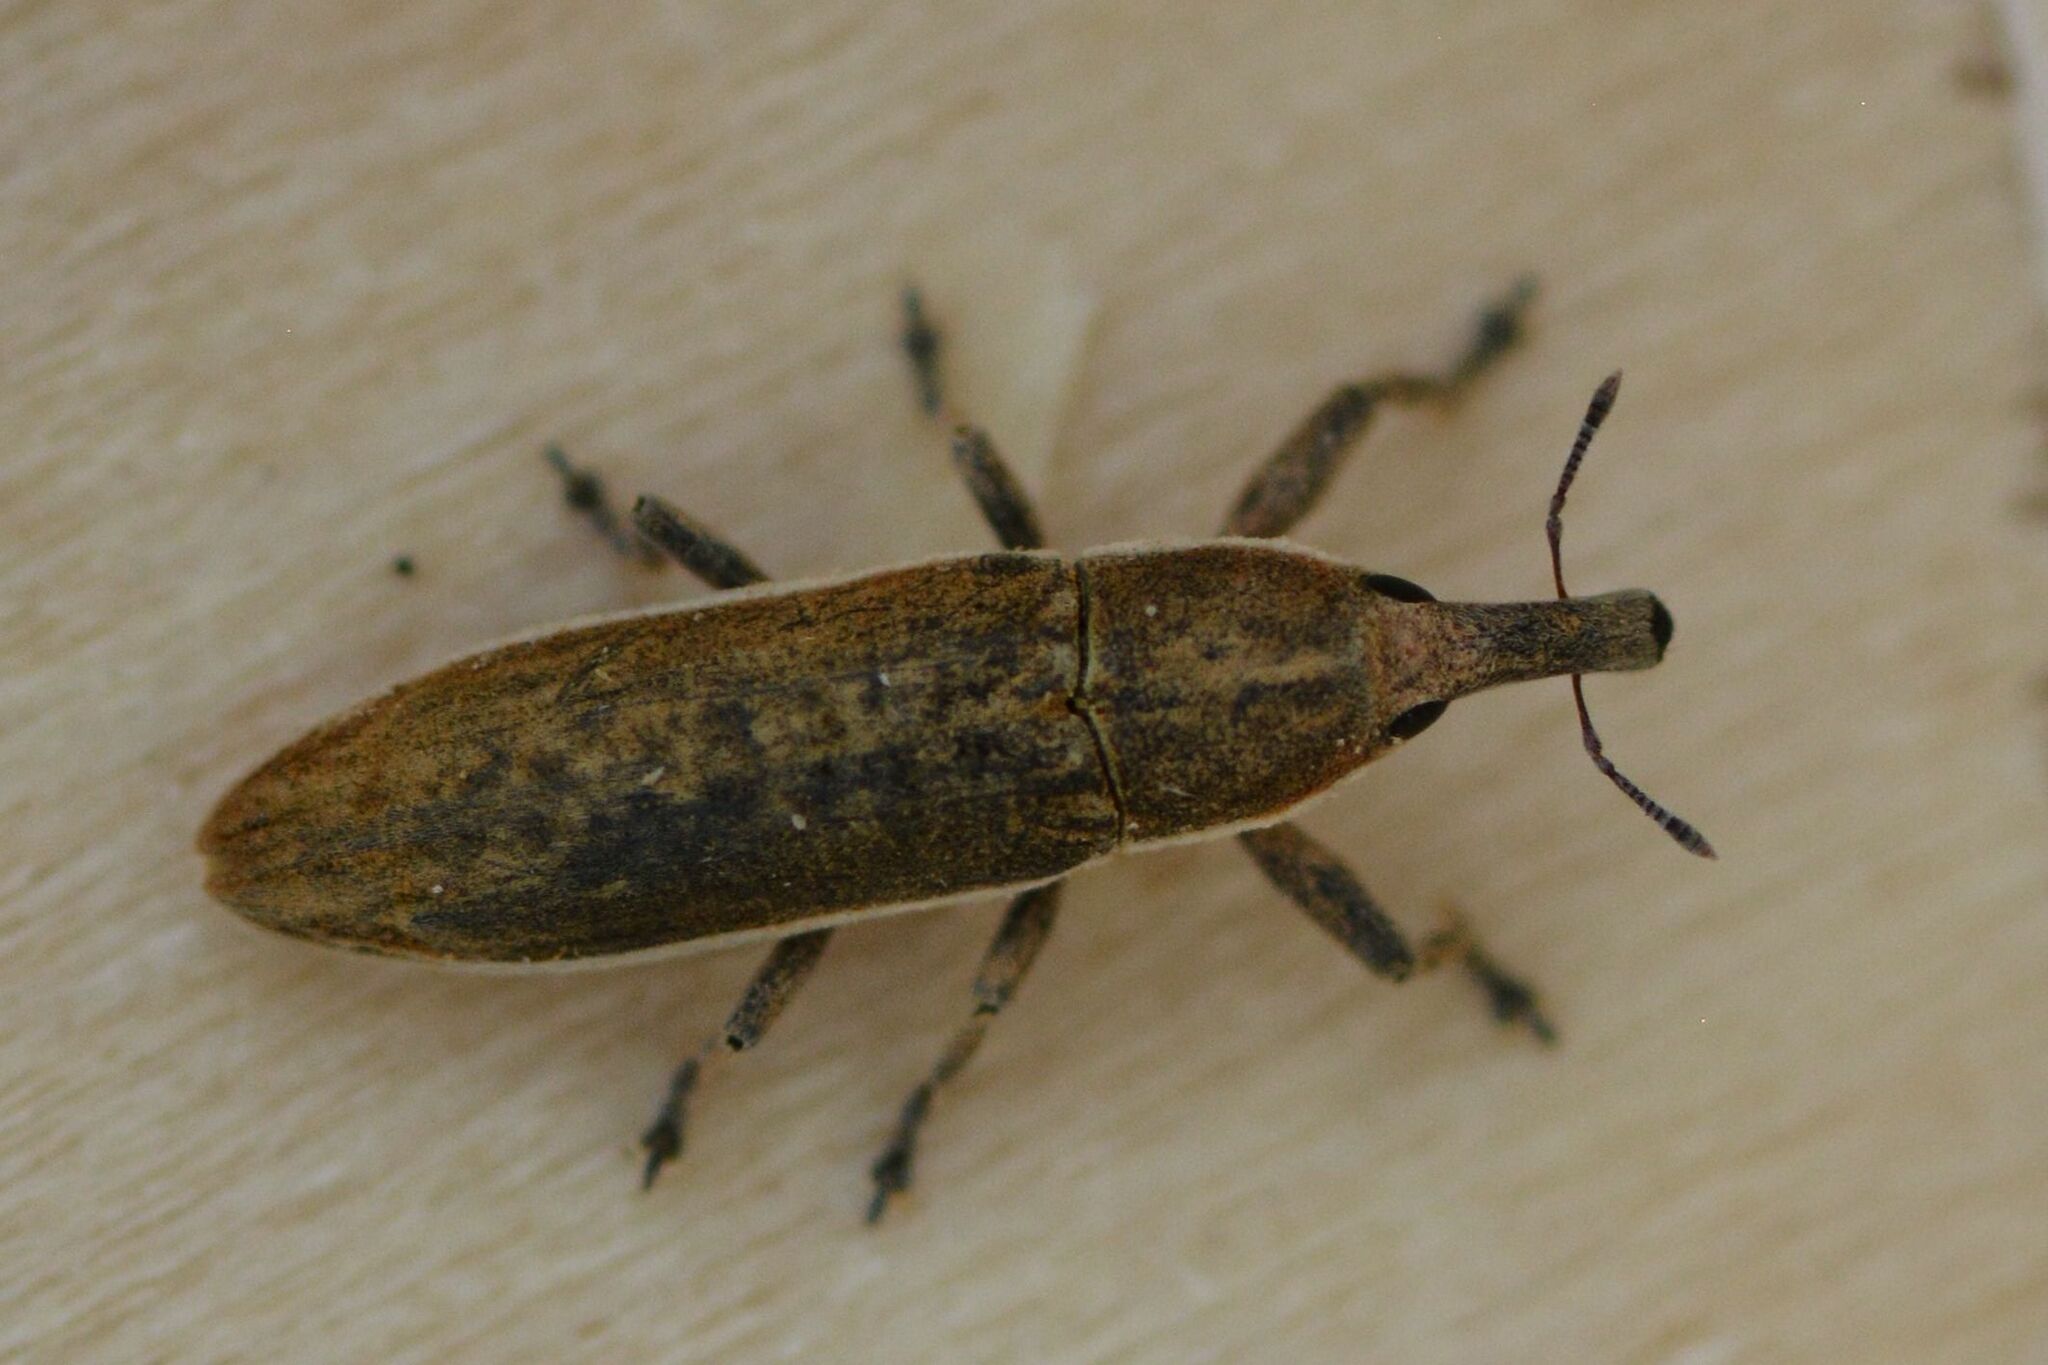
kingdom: Animalia
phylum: Arthropoda
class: Insecta
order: Coleoptera
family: Curculionidae
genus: Lixus
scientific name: Lixus juncii
